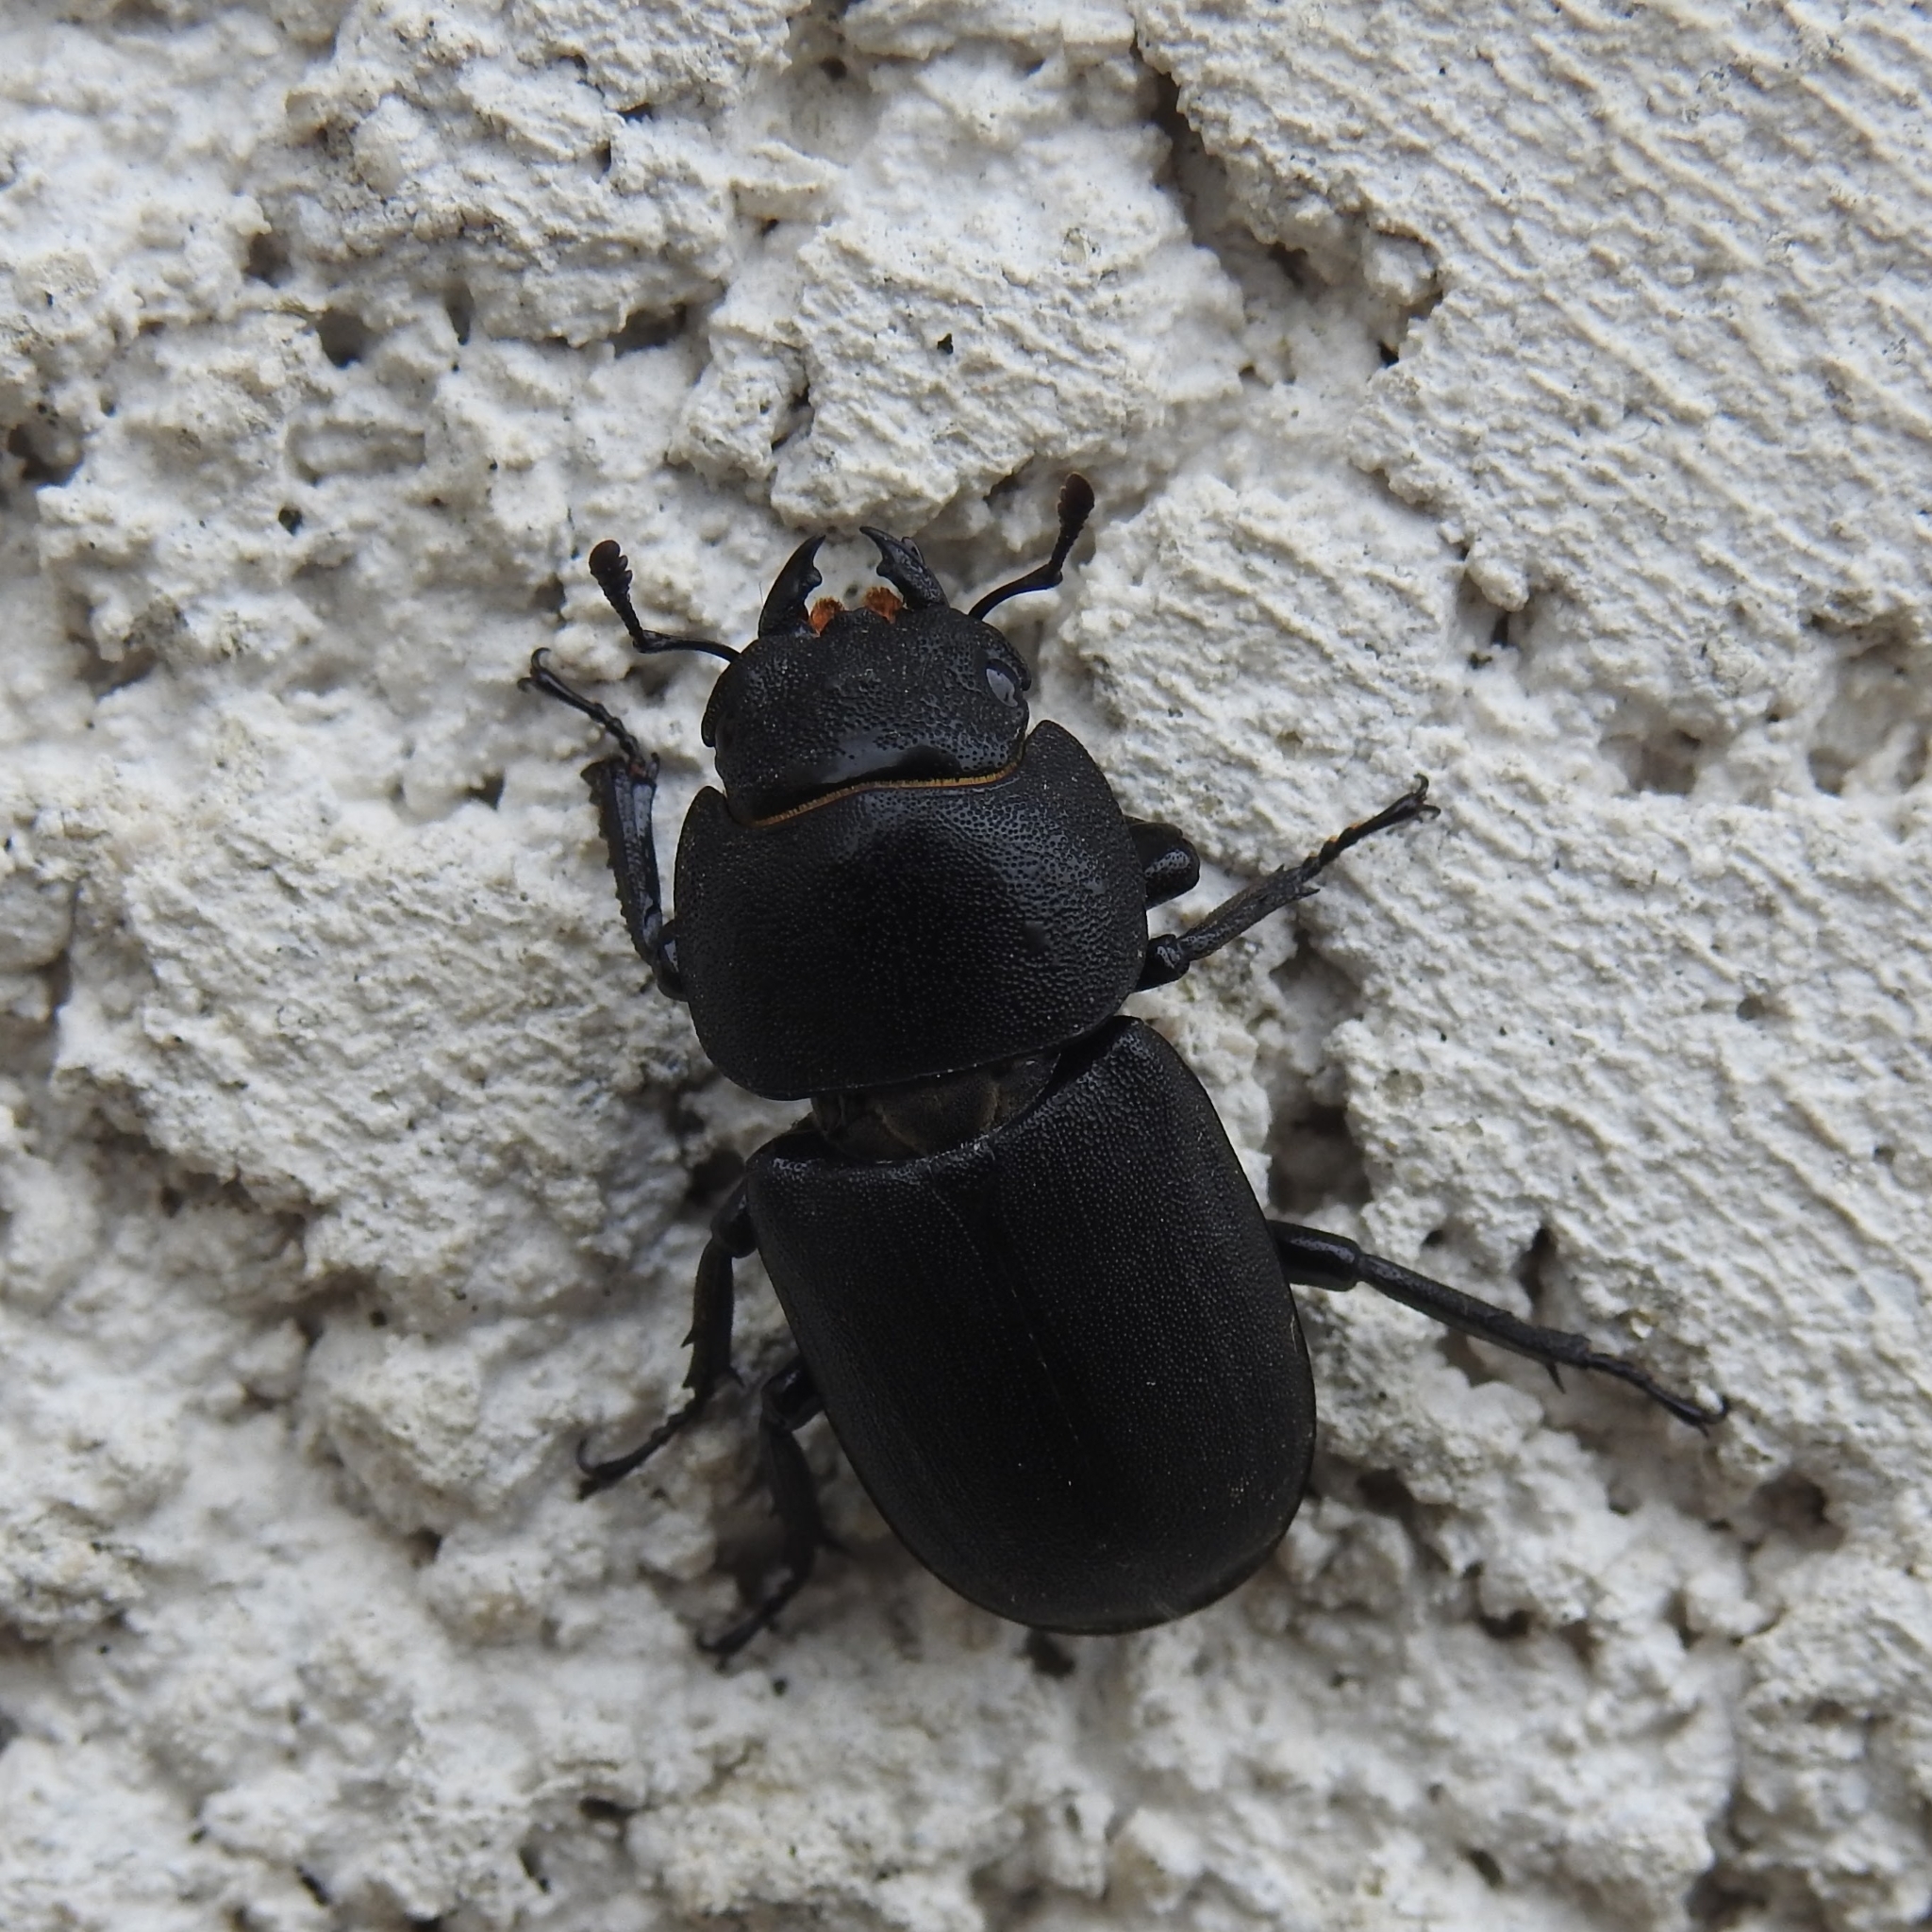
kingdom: Animalia
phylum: Arthropoda
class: Insecta
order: Coleoptera
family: Lucanidae
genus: Dorcus
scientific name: Dorcus parallelipipedus
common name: Lesser stag beetle
